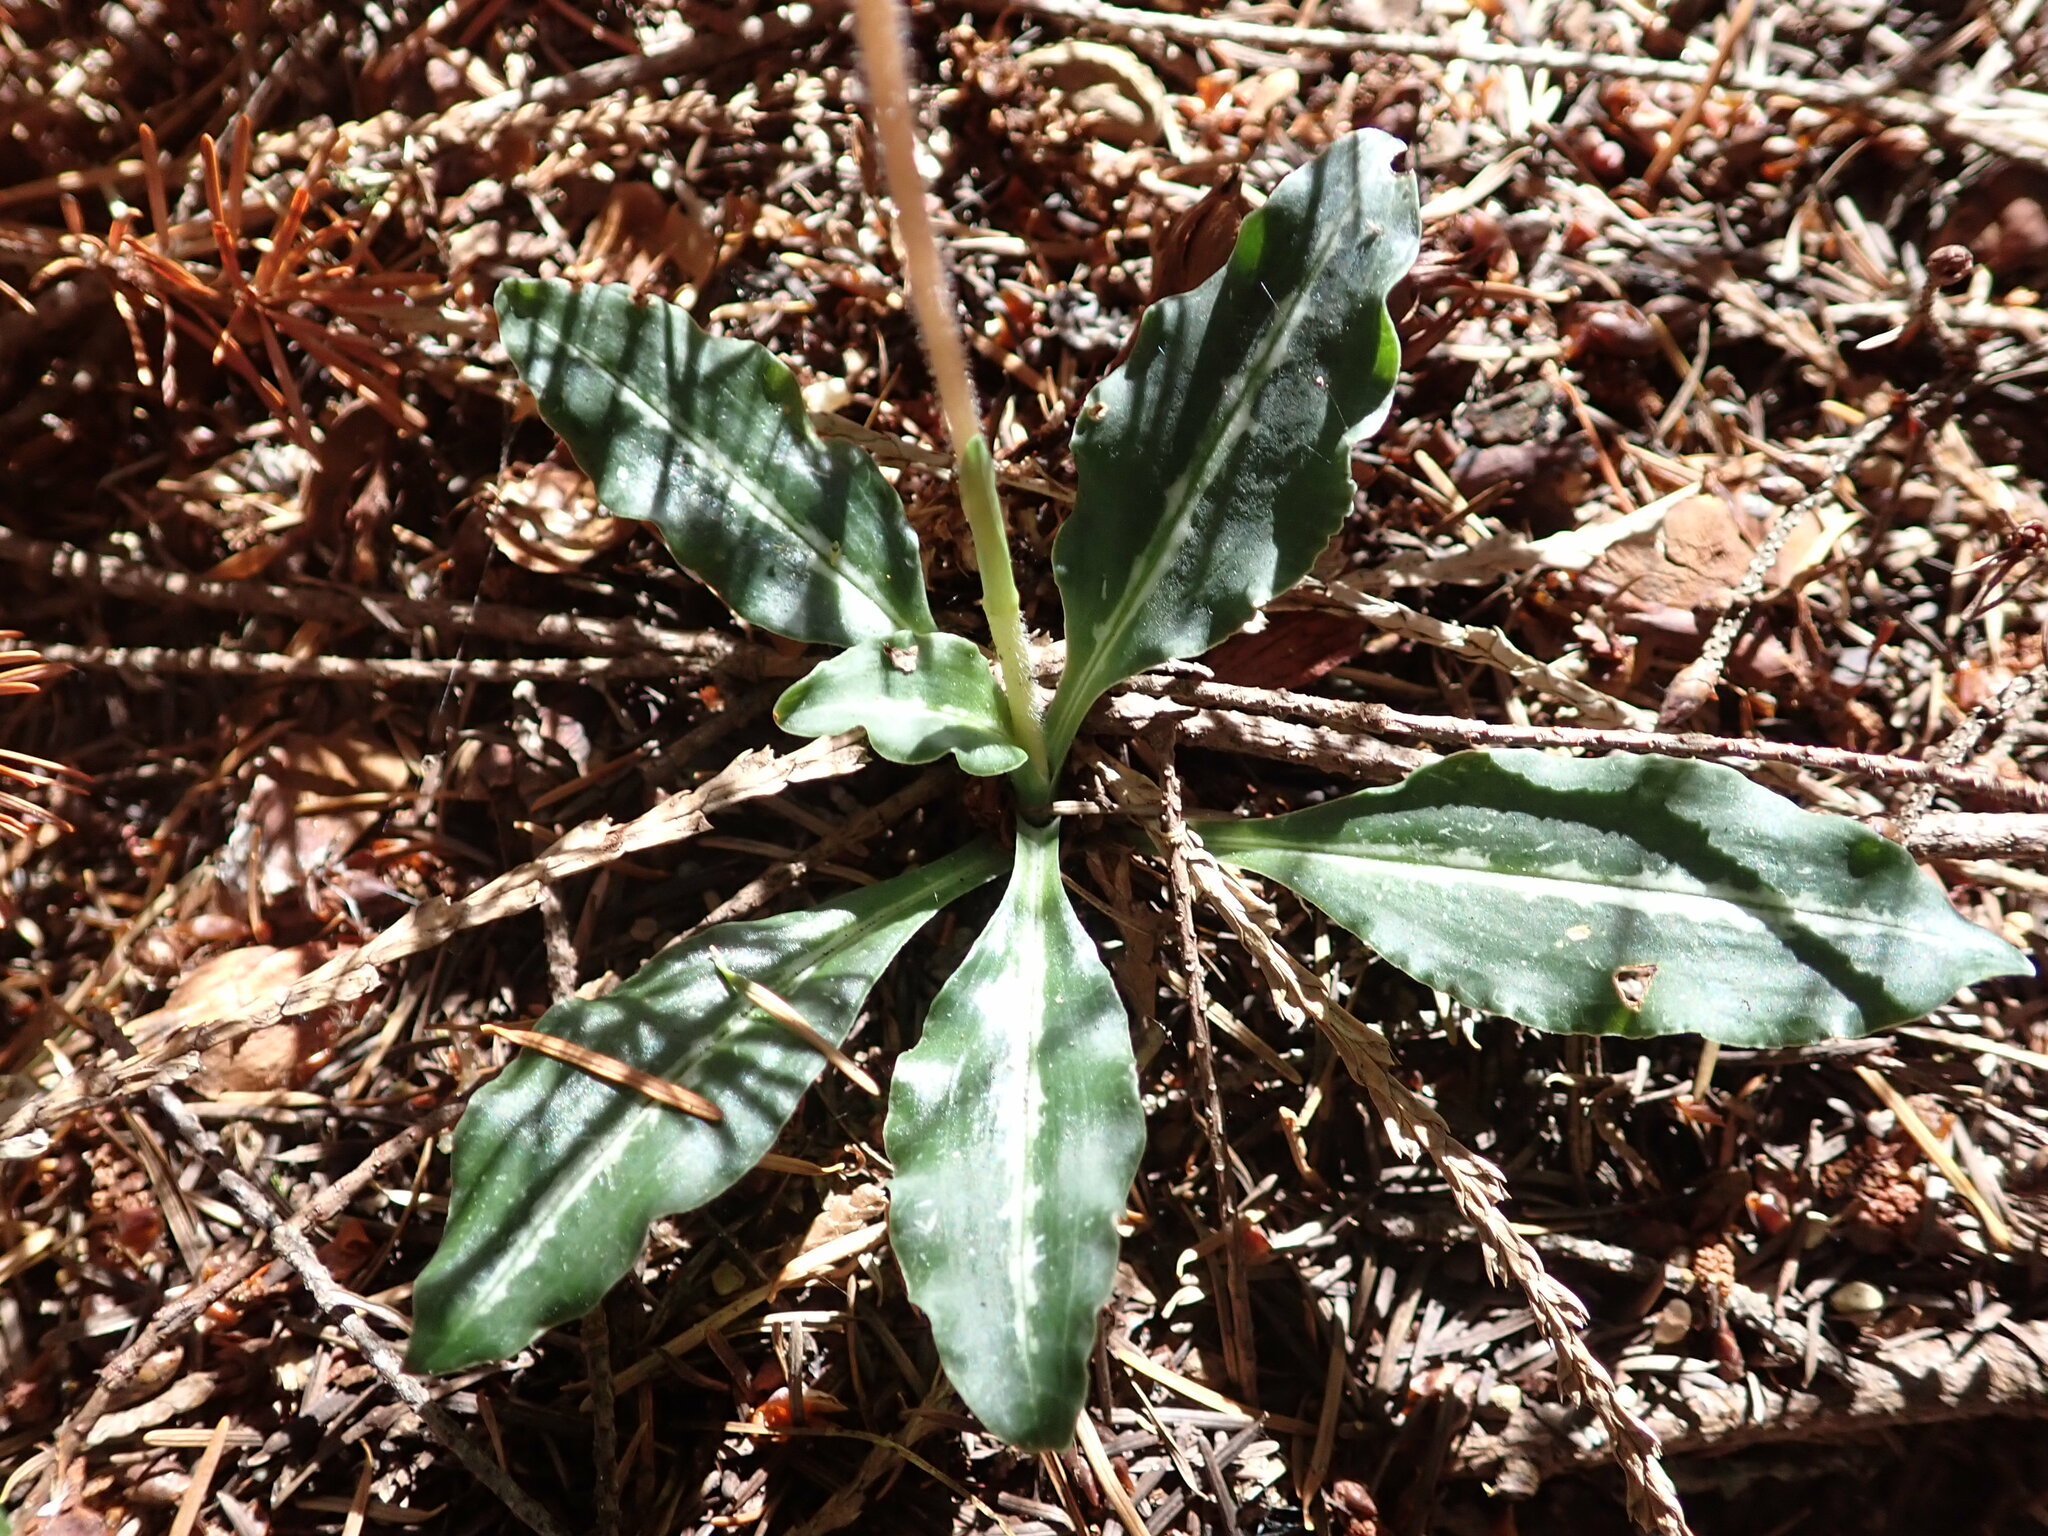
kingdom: Plantae
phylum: Tracheophyta
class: Liliopsida
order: Asparagales
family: Orchidaceae
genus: Goodyera
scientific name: Goodyera oblongifolia
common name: Giant rattlesnake-plantain
